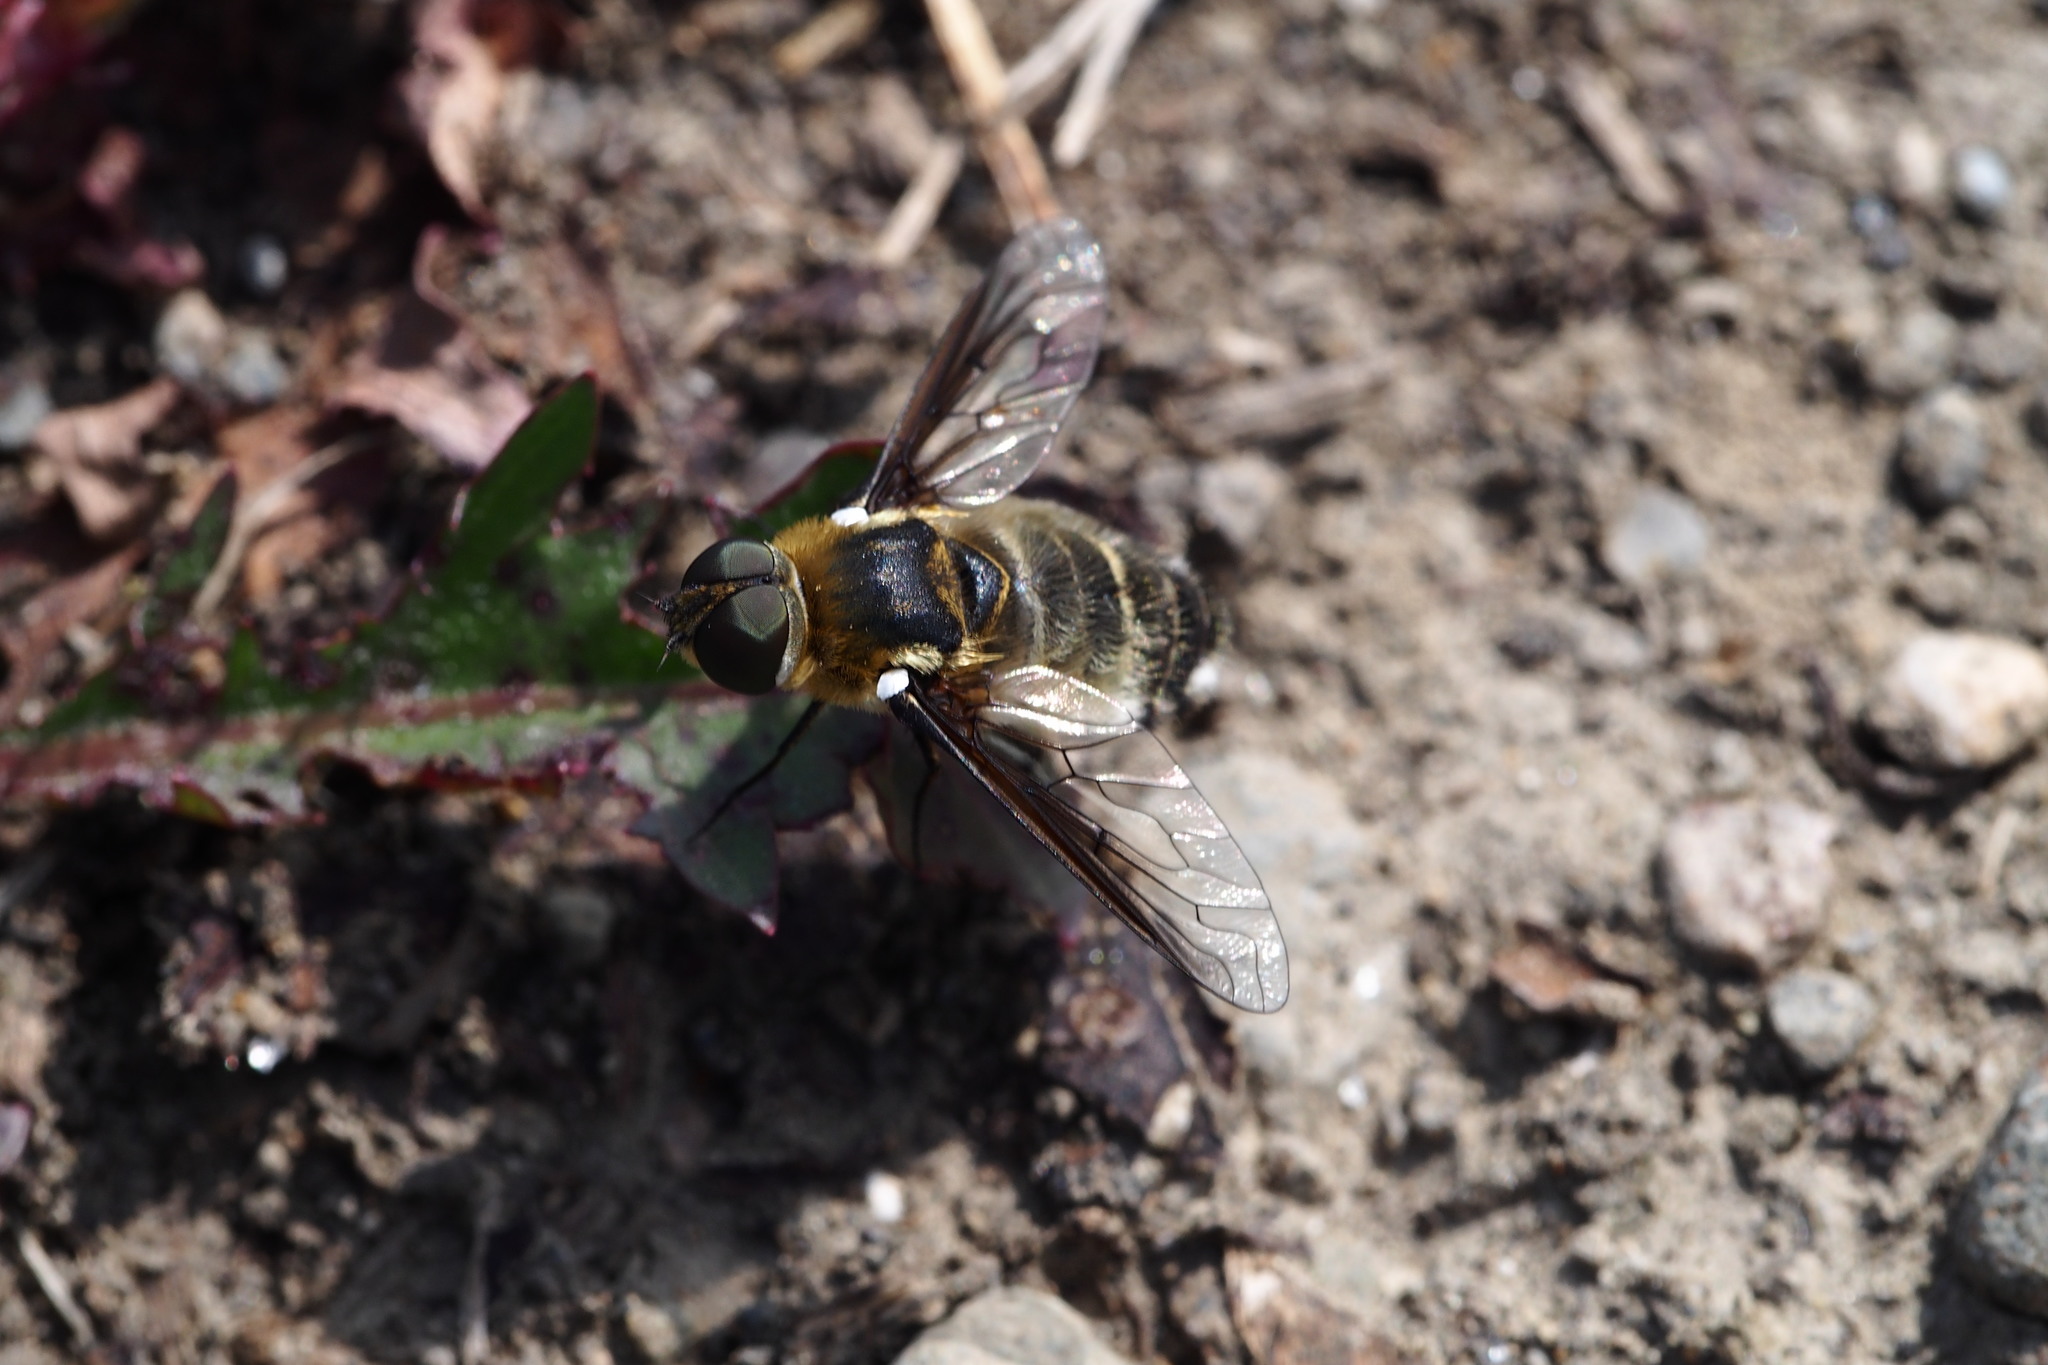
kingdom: Animalia
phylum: Arthropoda
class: Insecta
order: Diptera
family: Bombyliidae
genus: Villa
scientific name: Villa limbata
